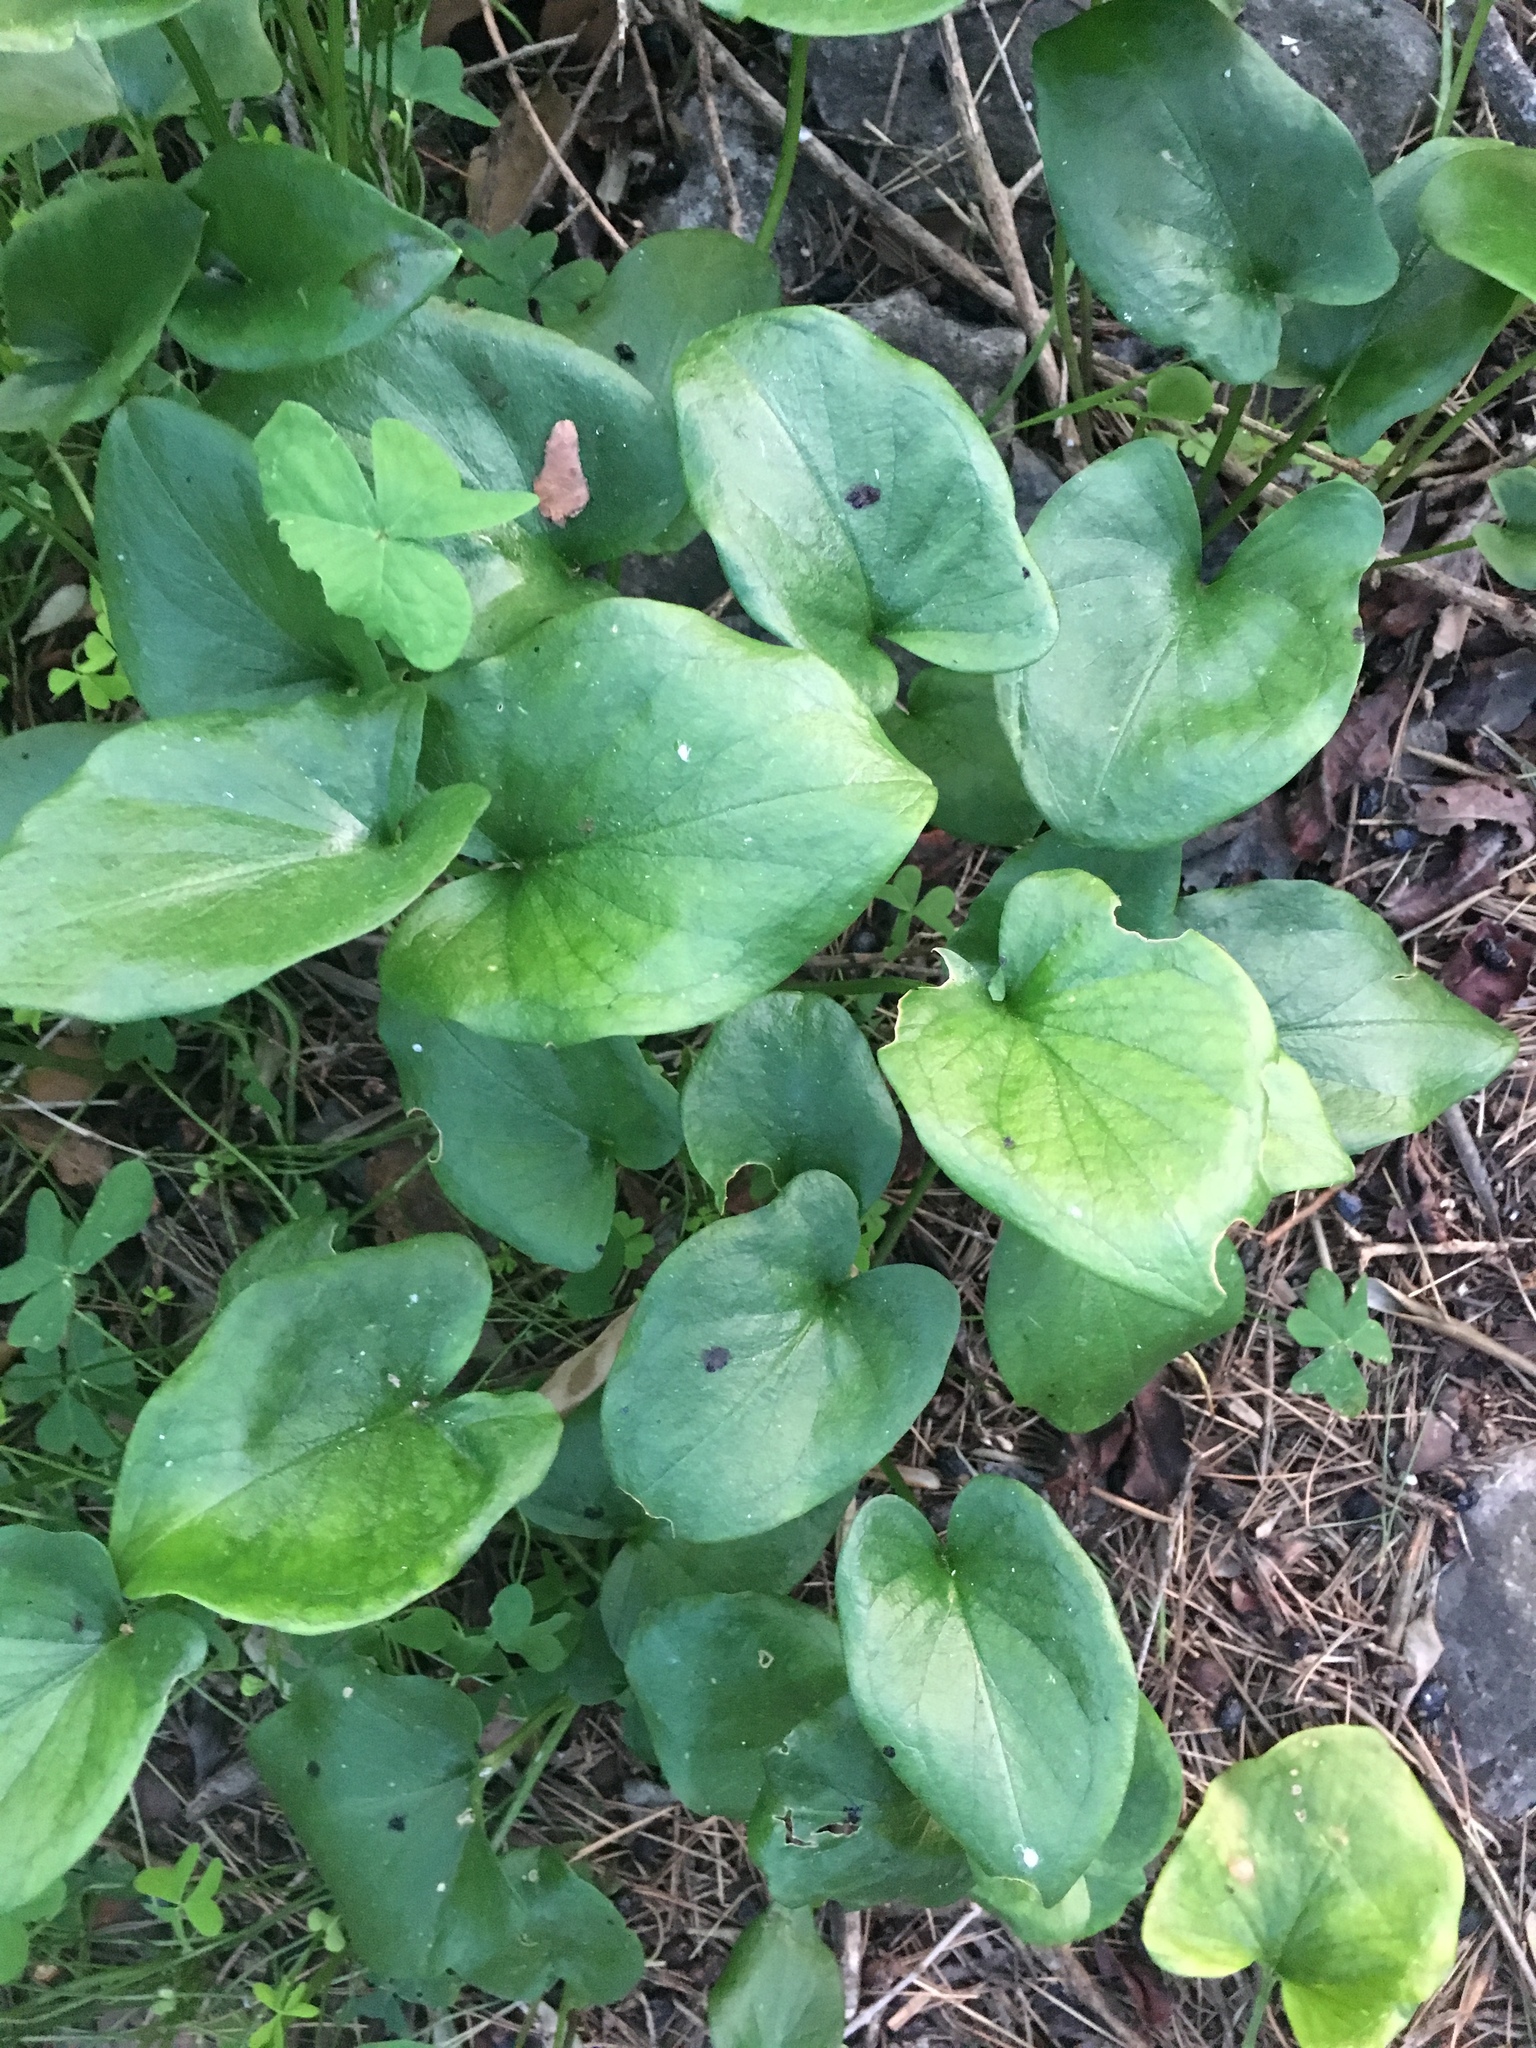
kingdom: Plantae
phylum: Tracheophyta
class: Liliopsida
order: Alismatales
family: Araceae
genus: Arisarum
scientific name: Arisarum vulgare
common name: Common arisarum
